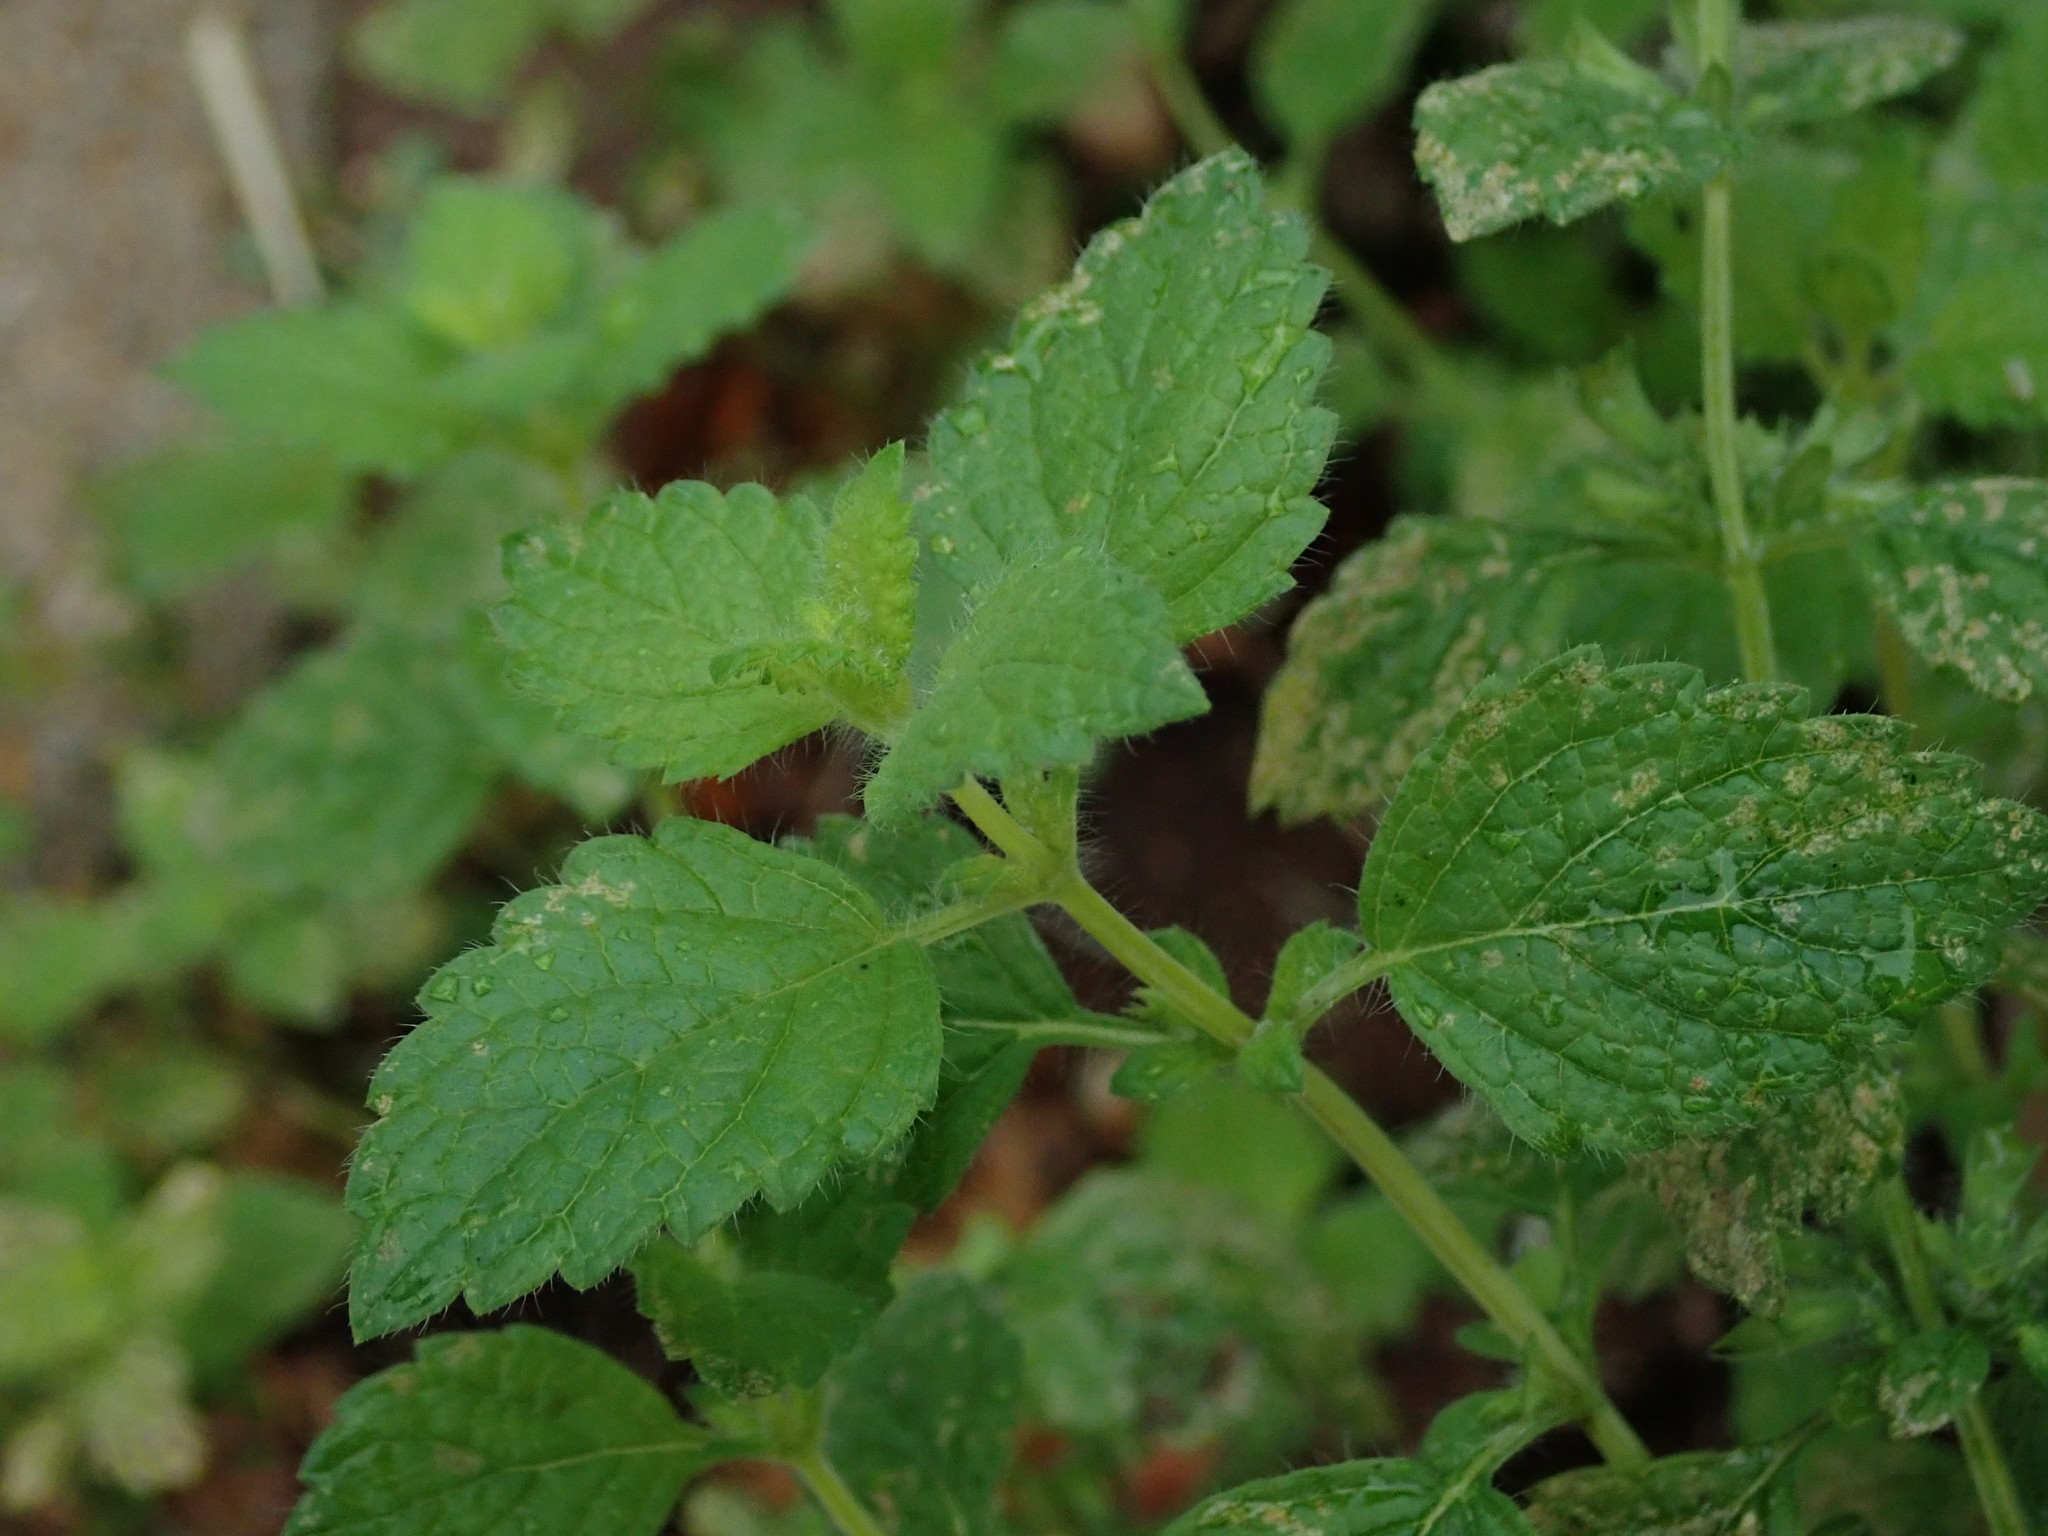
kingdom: Plantae
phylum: Tracheophyta
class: Magnoliopsida
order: Lamiales
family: Lamiaceae
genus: Melissa
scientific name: Melissa officinalis
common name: Balm
